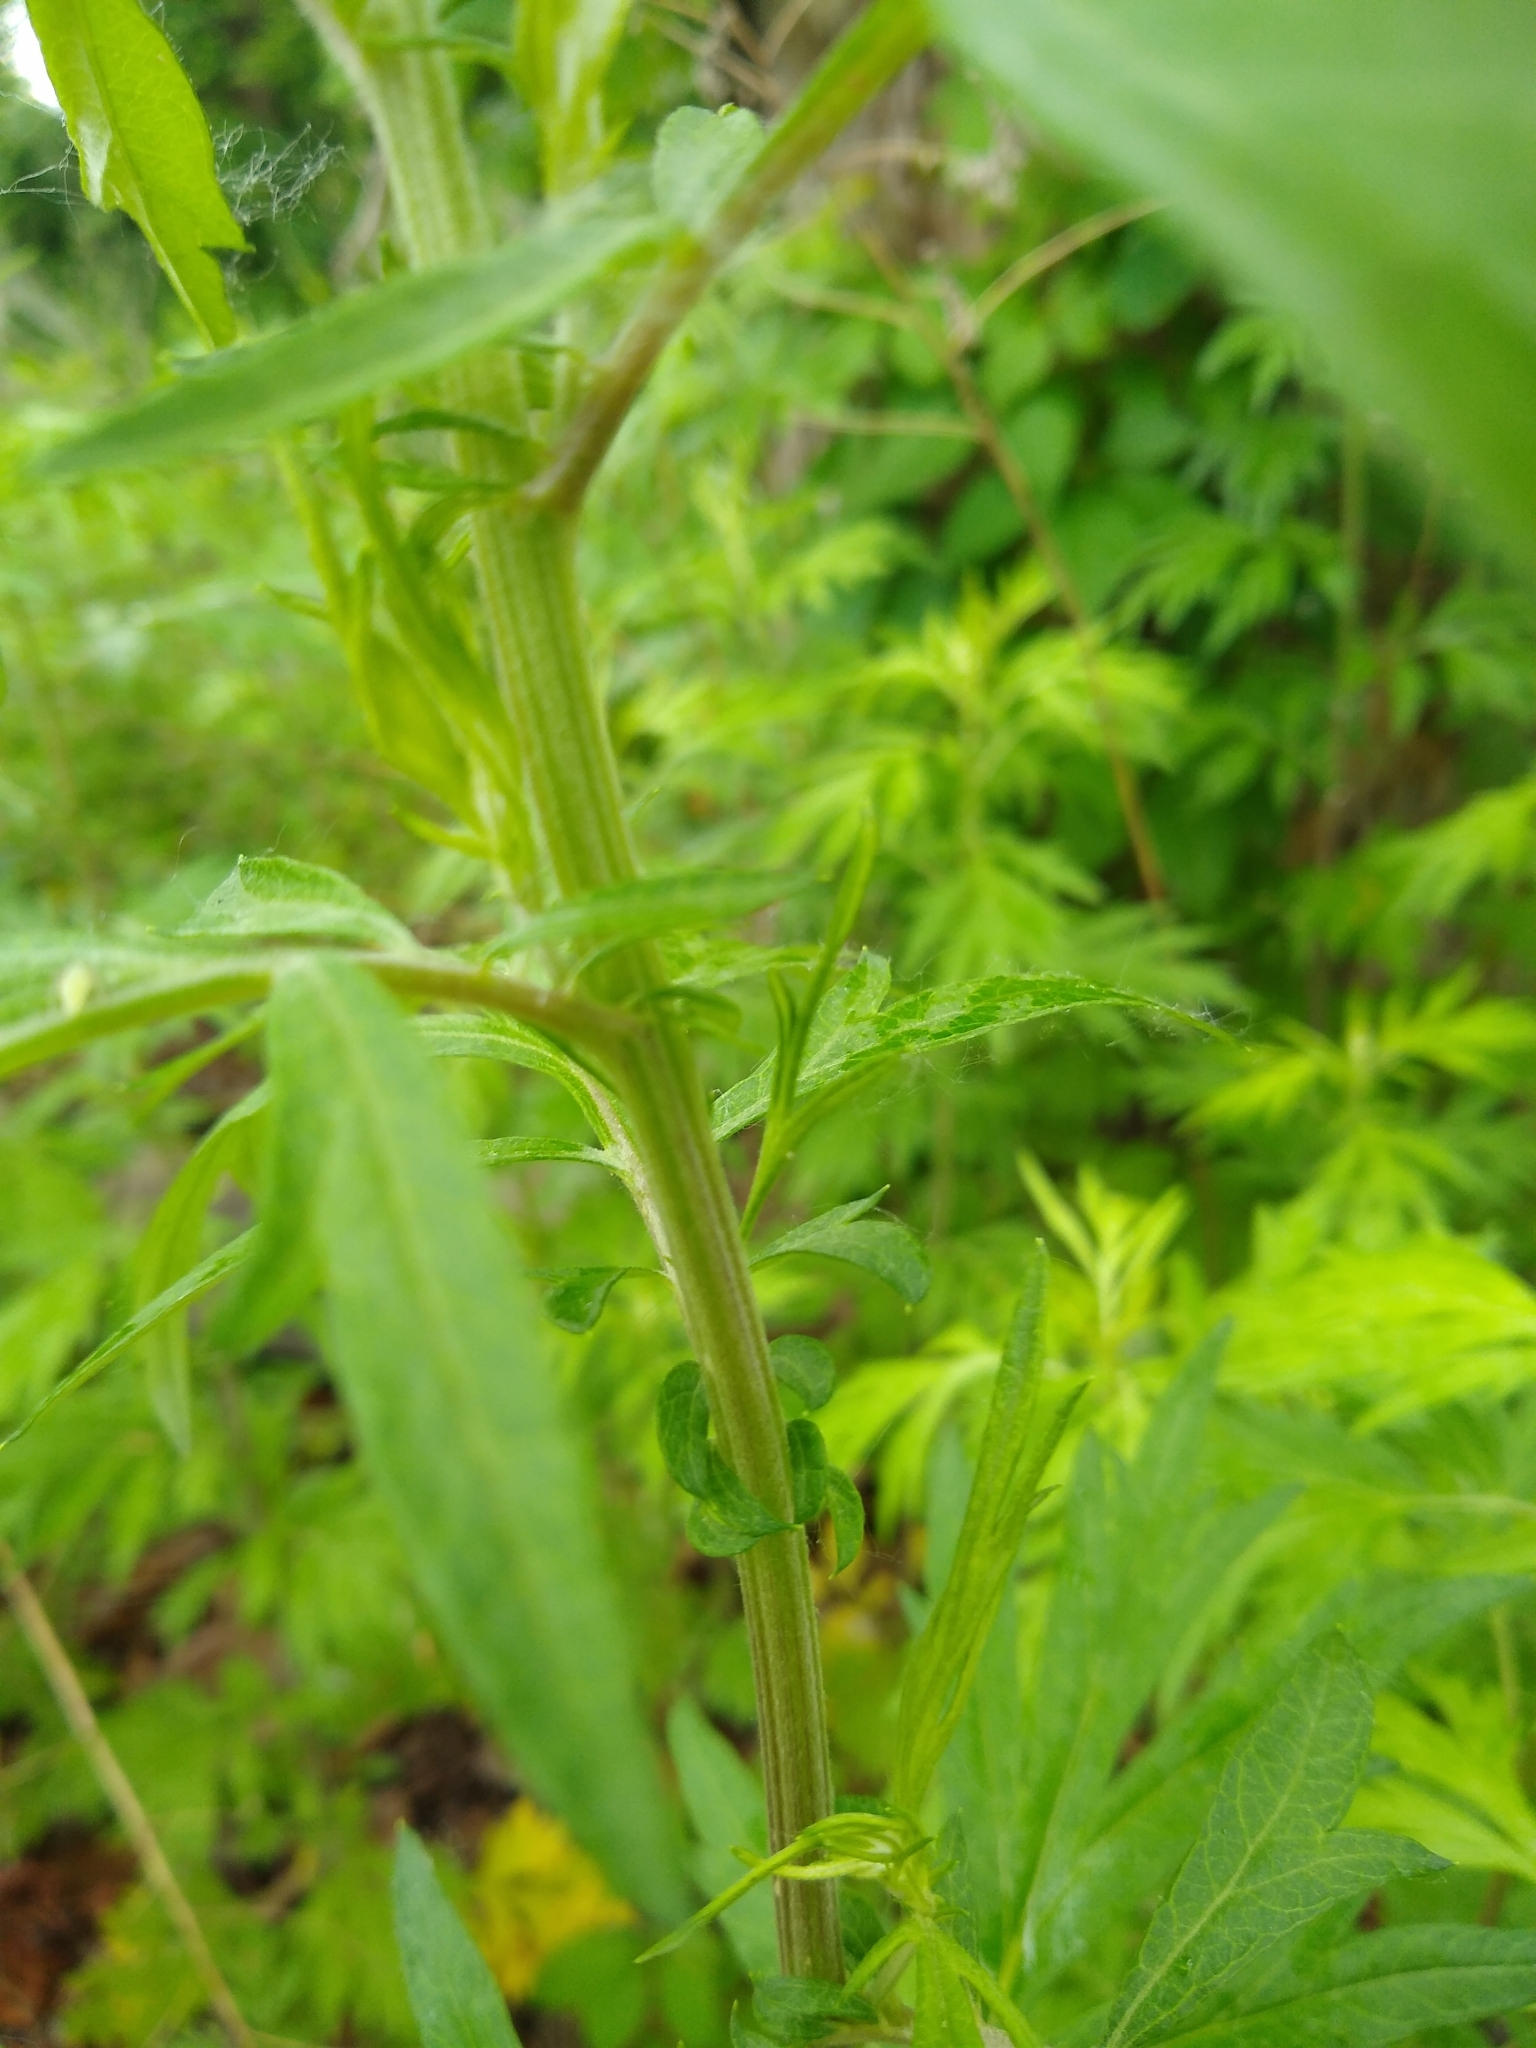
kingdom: Plantae
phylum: Tracheophyta
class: Magnoliopsida
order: Asterales
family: Asteraceae
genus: Artemisia
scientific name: Artemisia vulgaris
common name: Mugwort
